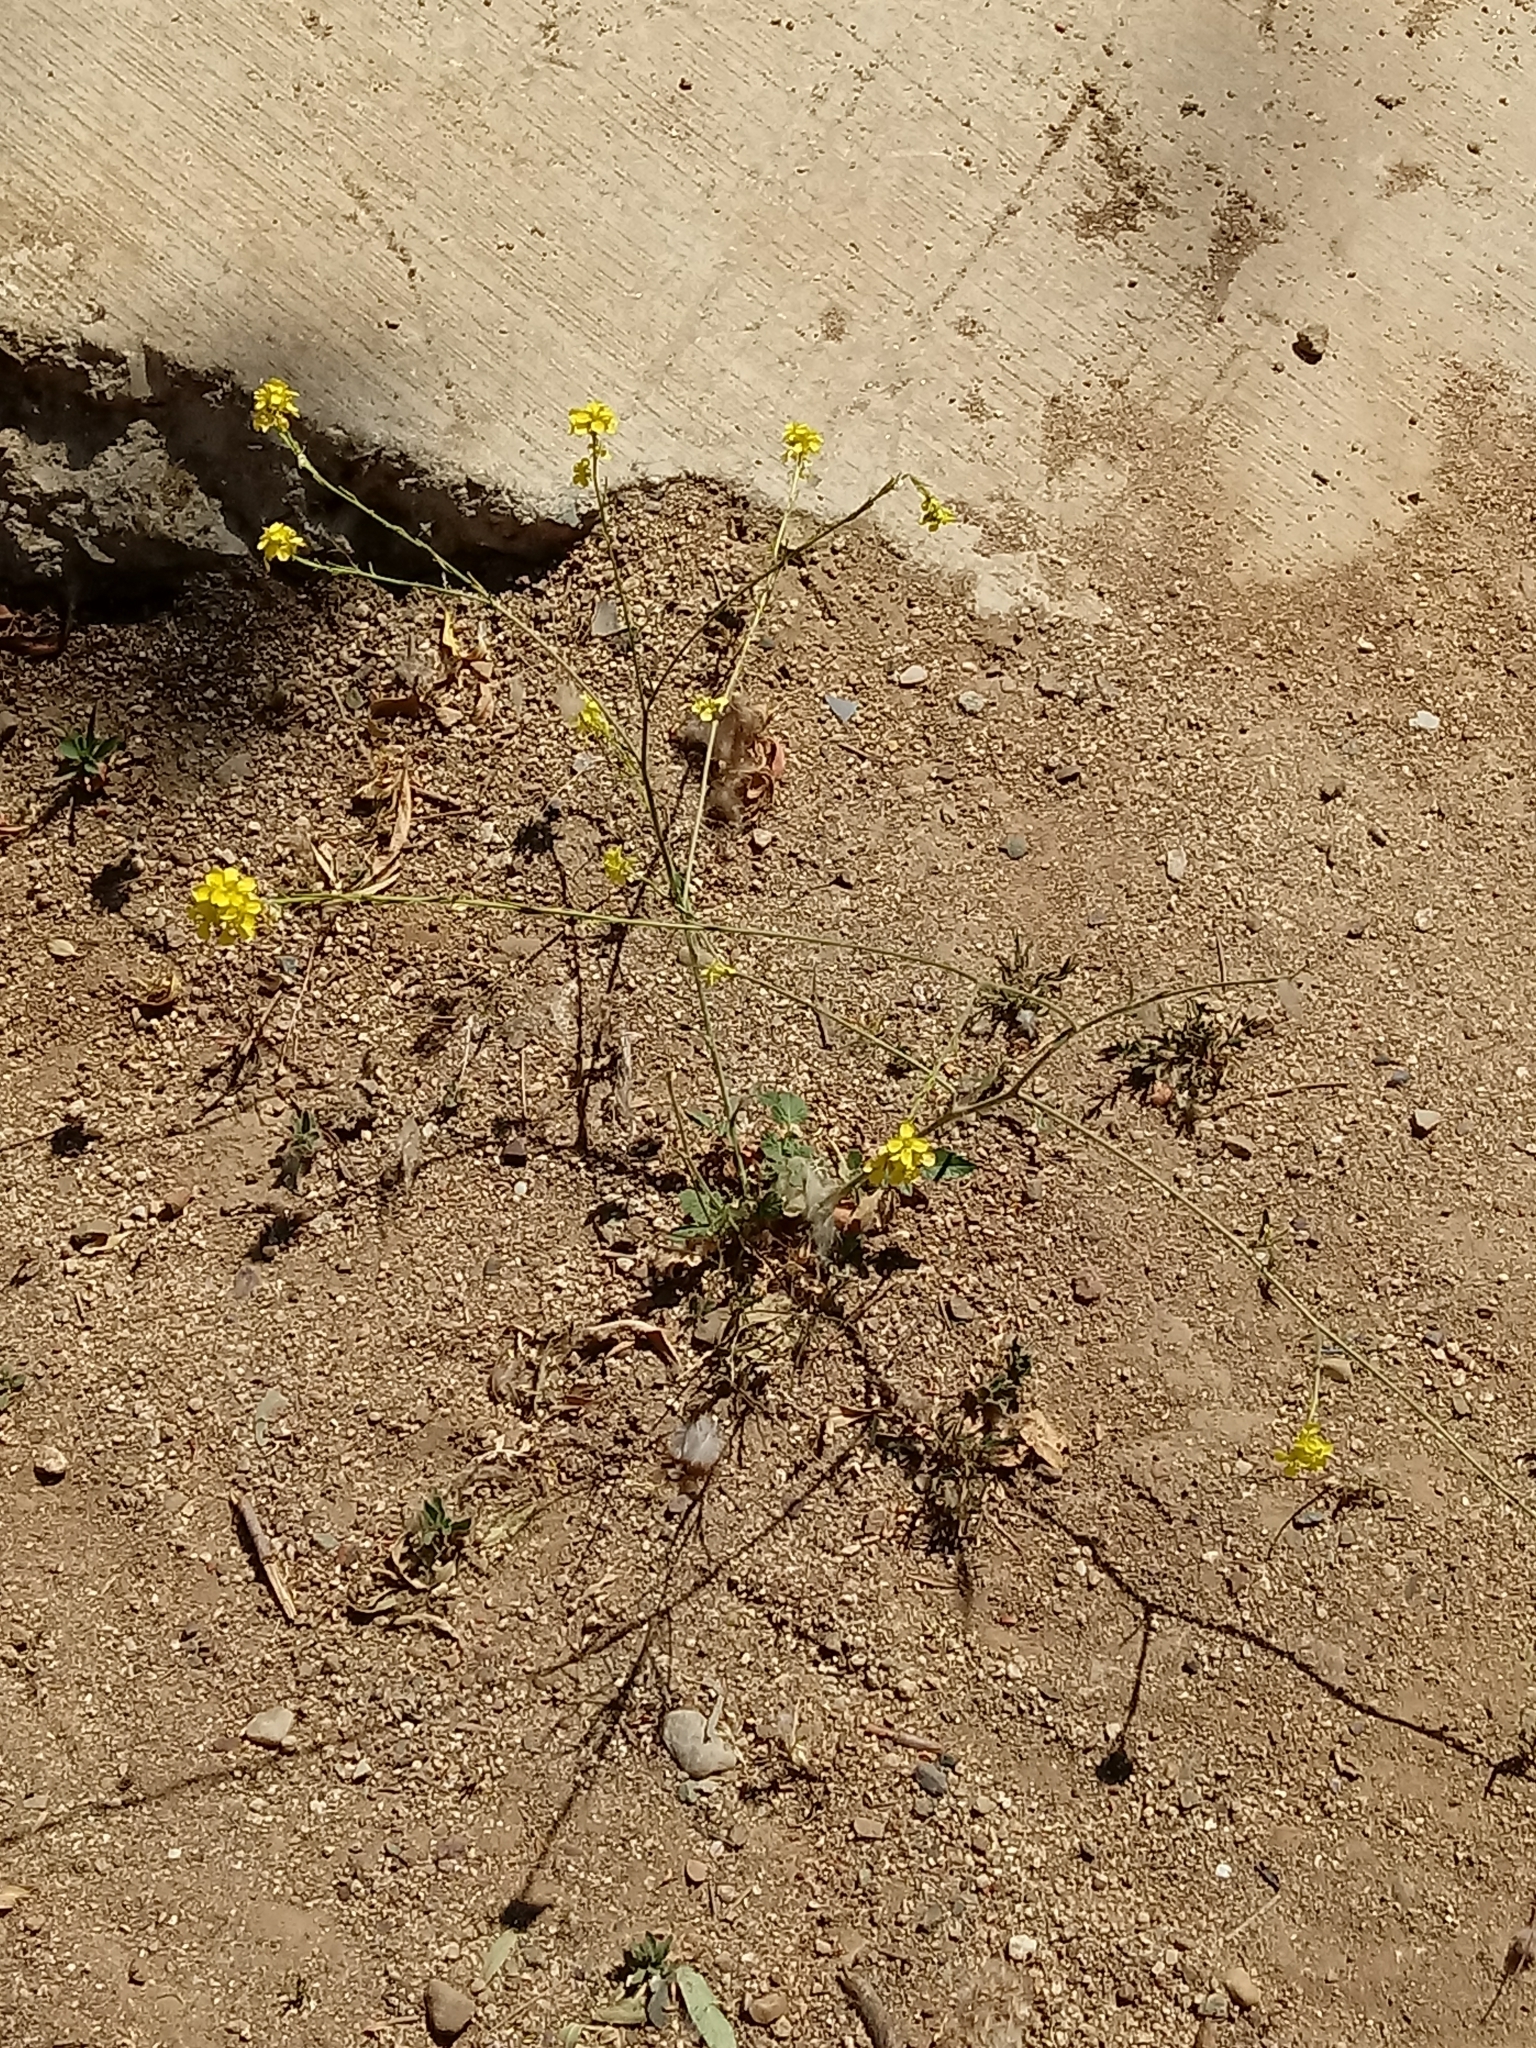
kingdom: Plantae
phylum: Tracheophyta
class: Magnoliopsida
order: Brassicales
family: Brassicaceae
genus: Hirschfeldia
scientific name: Hirschfeldia incana
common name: Hoary mustard
